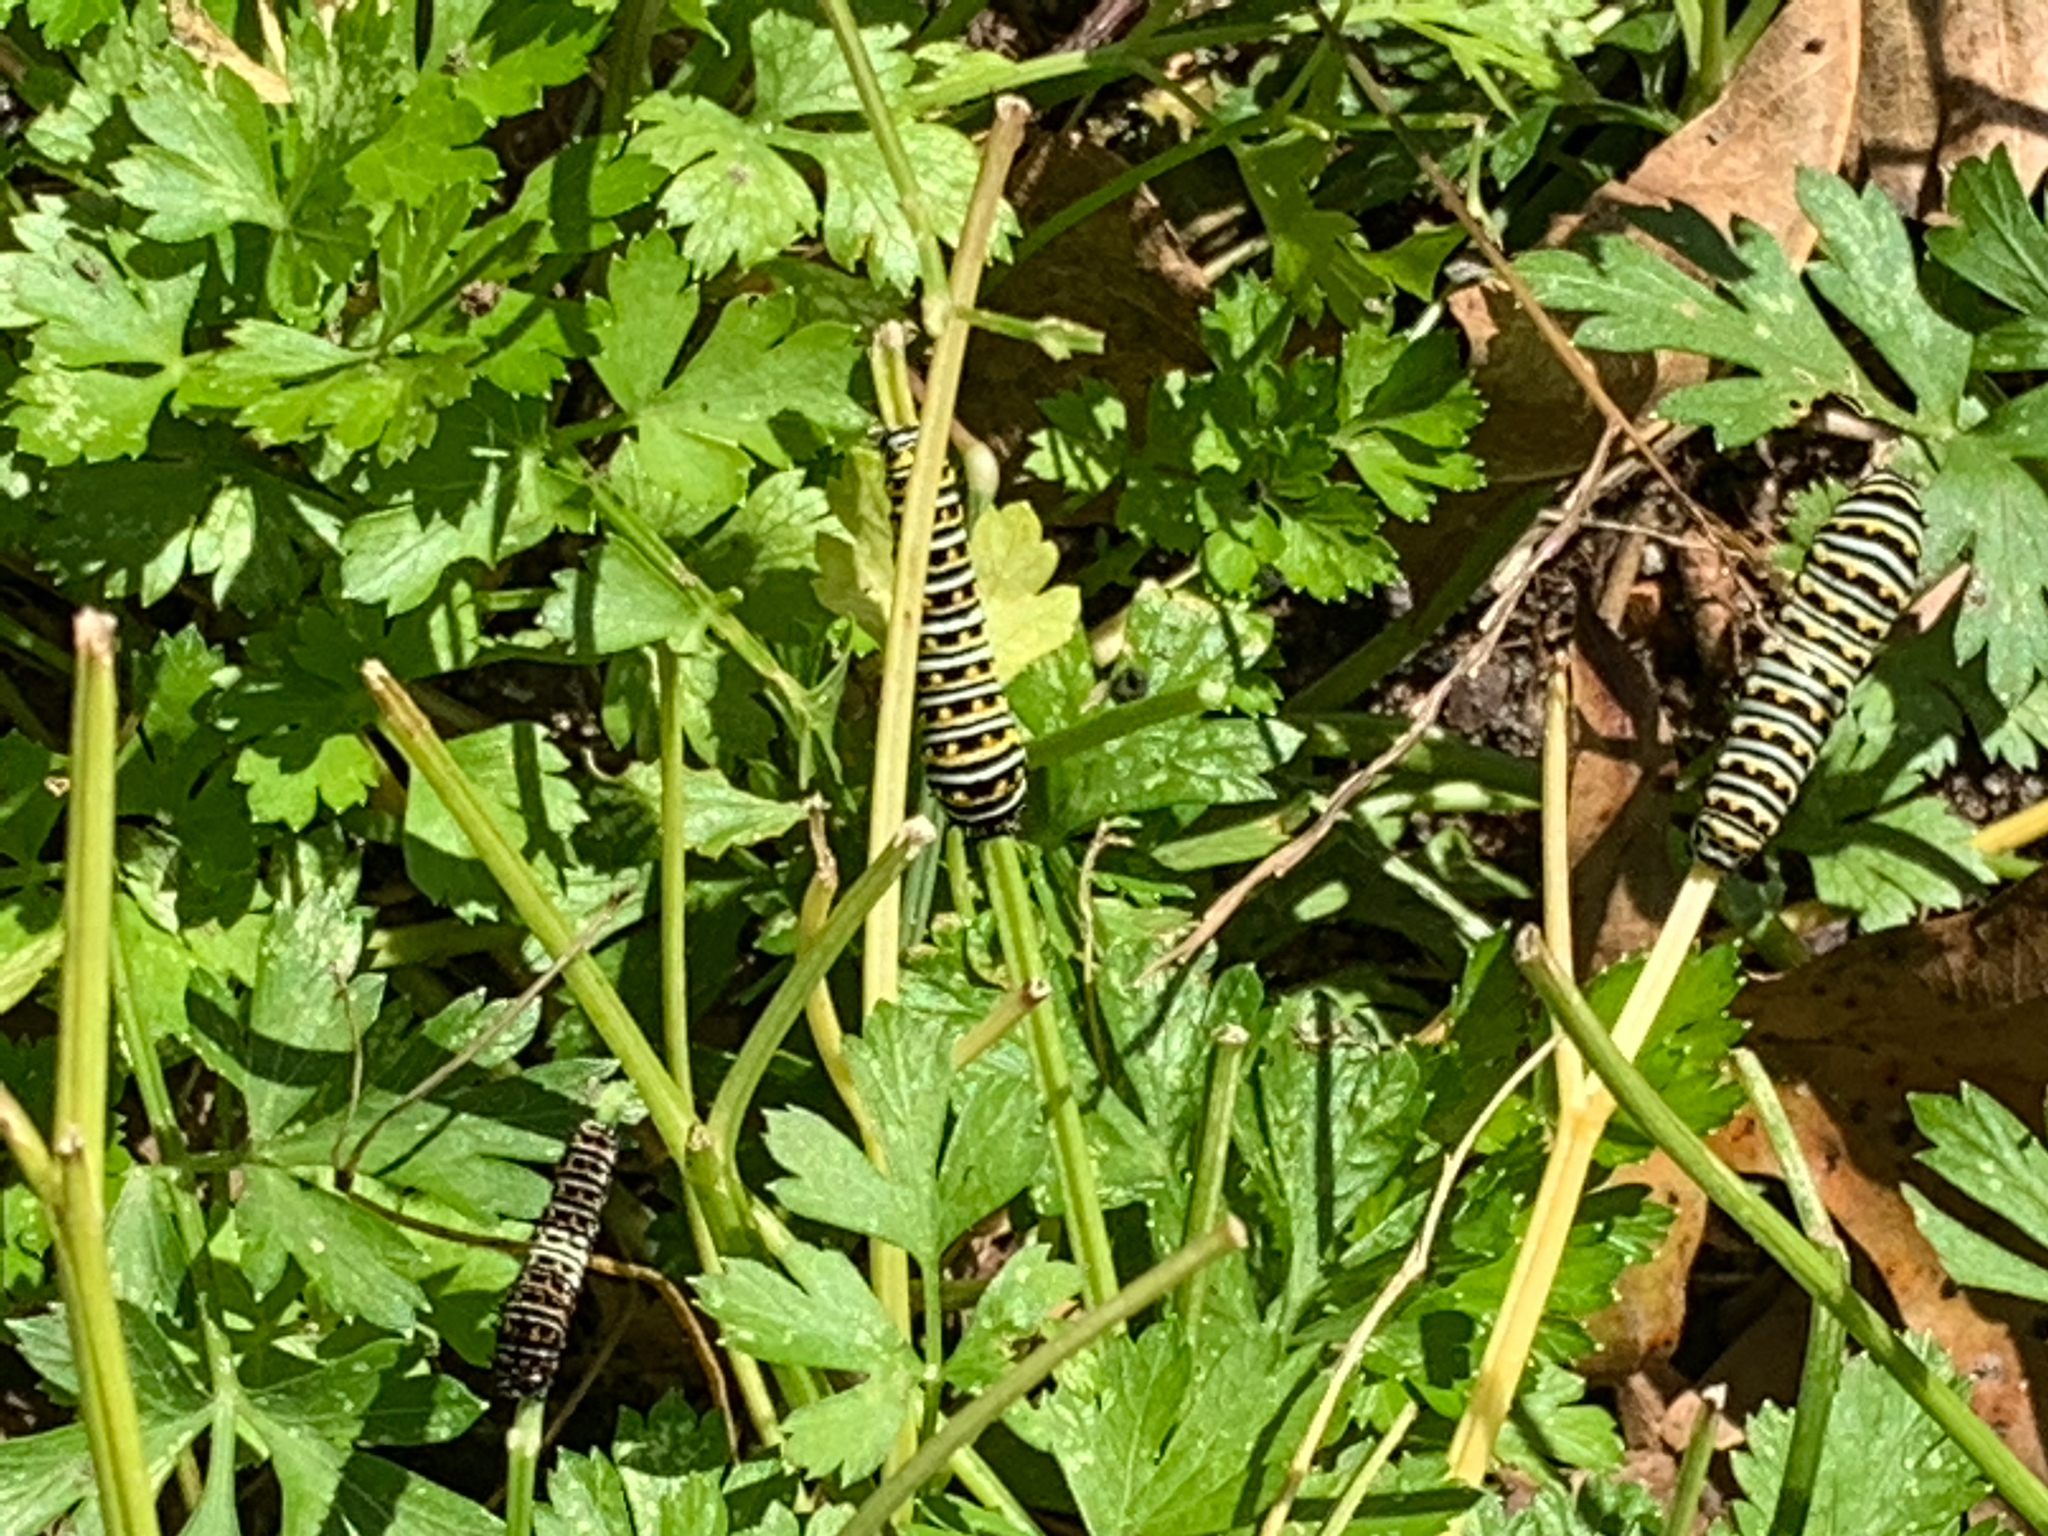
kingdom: Animalia
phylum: Arthropoda
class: Insecta
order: Lepidoptera
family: Papilionidae
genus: Papilio
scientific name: Papilio polyxenes
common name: Black swallowtail
